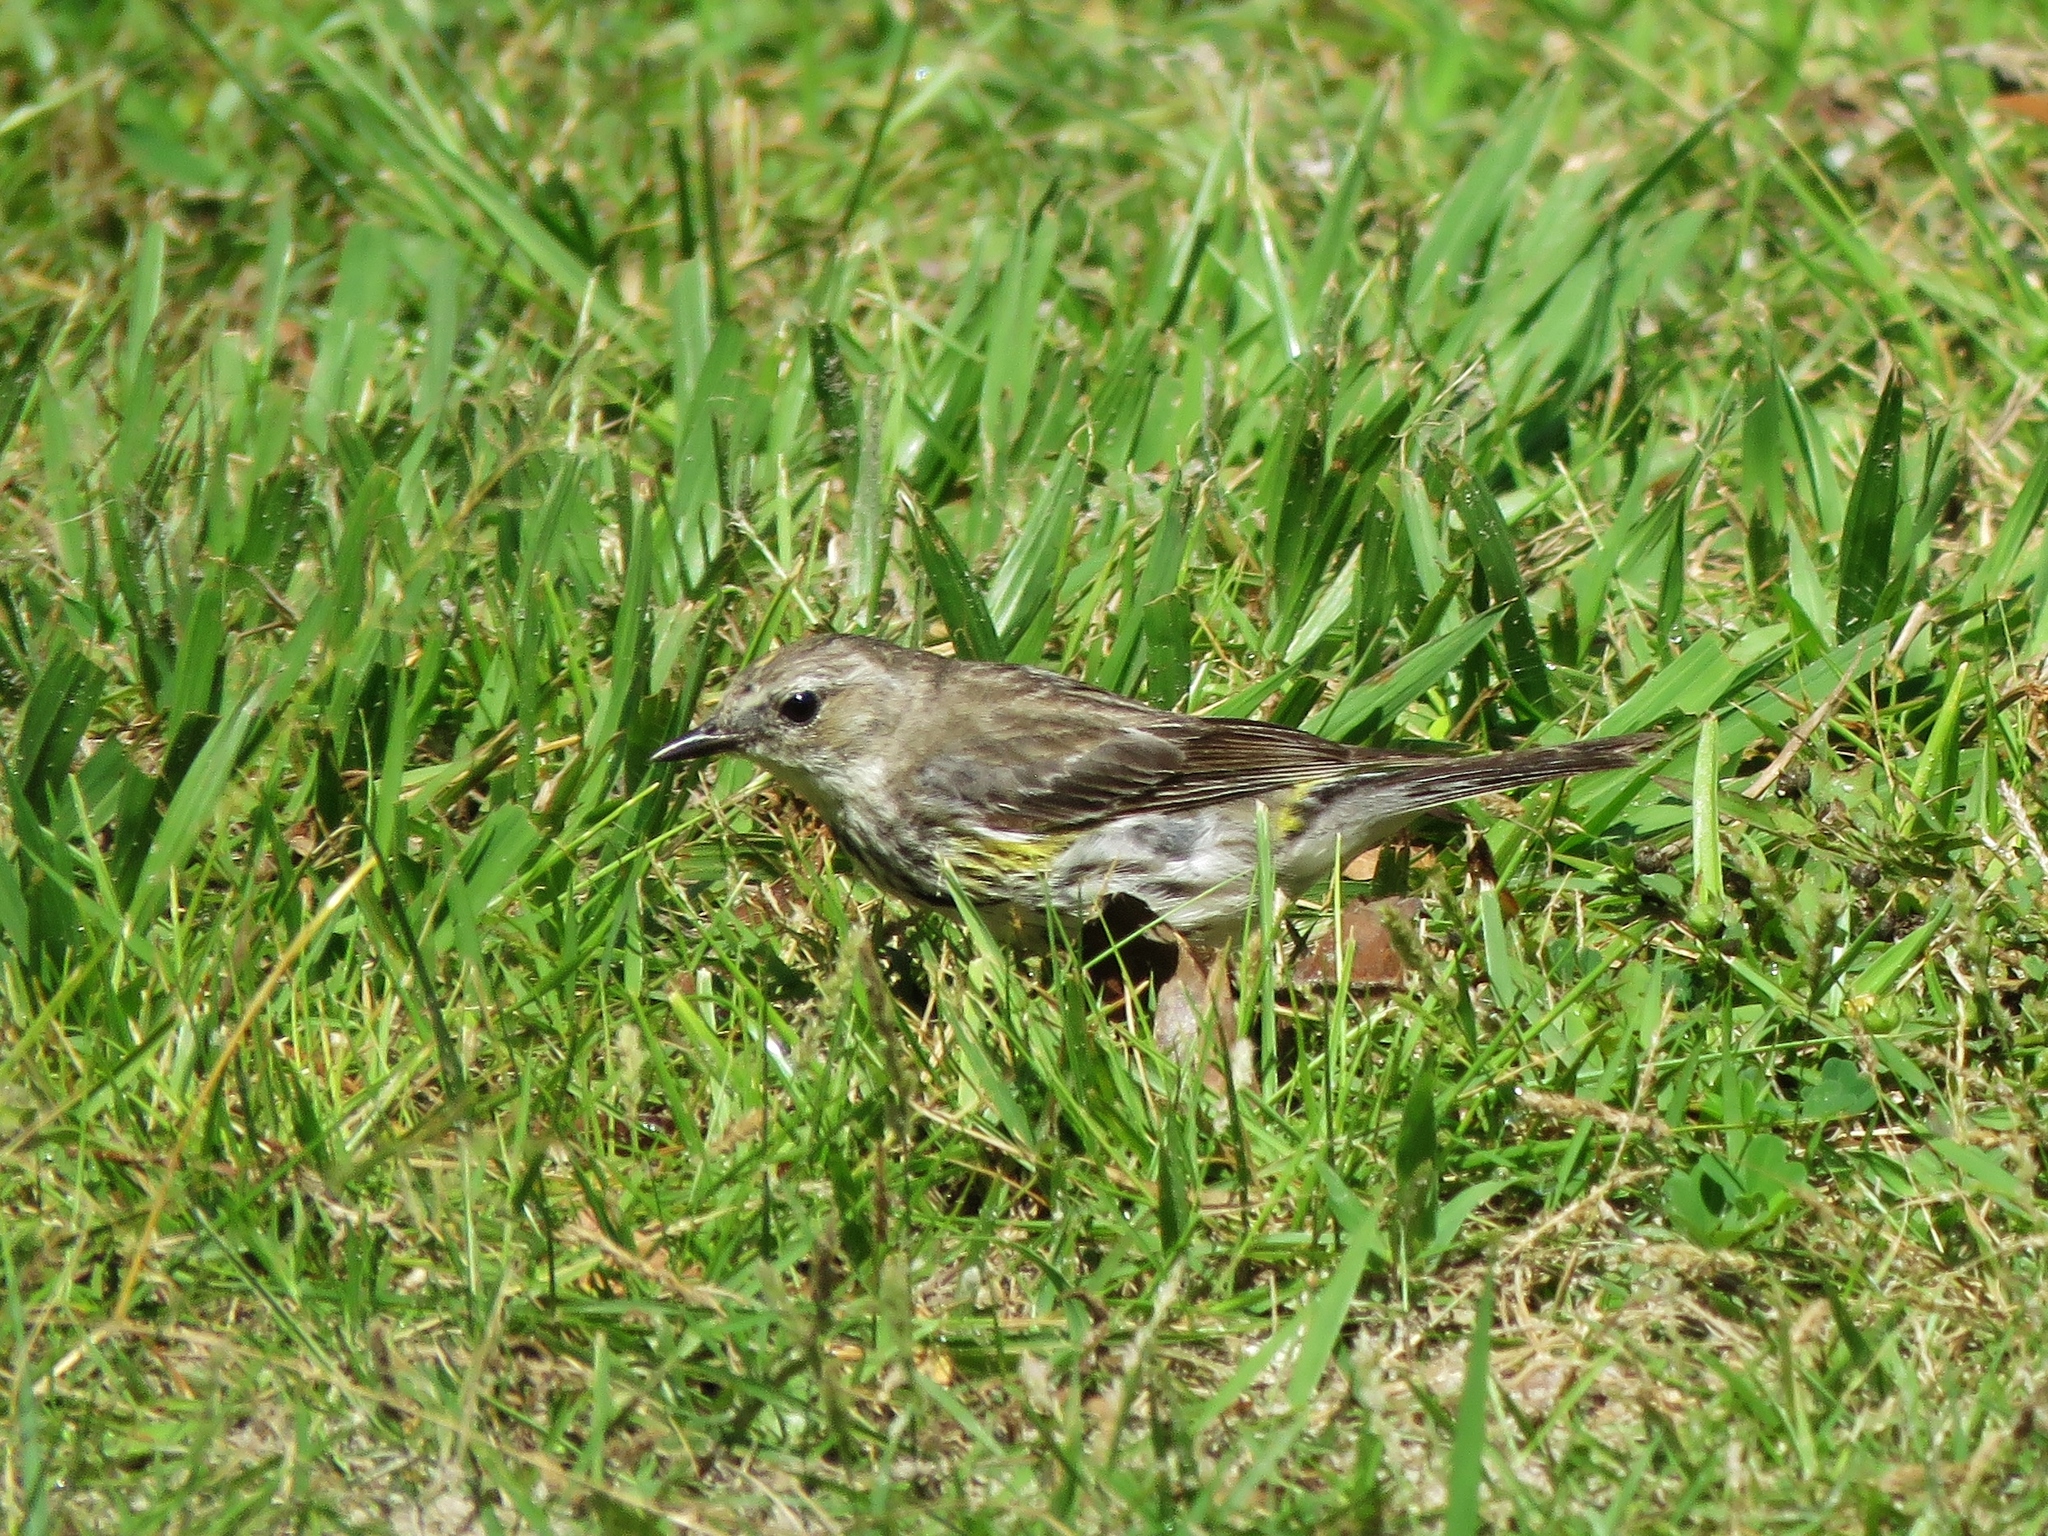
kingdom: Animalia
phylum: Chordata
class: Aves
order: Passeriformes
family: Parulidae
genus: Setophaga
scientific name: Setophaga coronata
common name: Myrtle warbler
